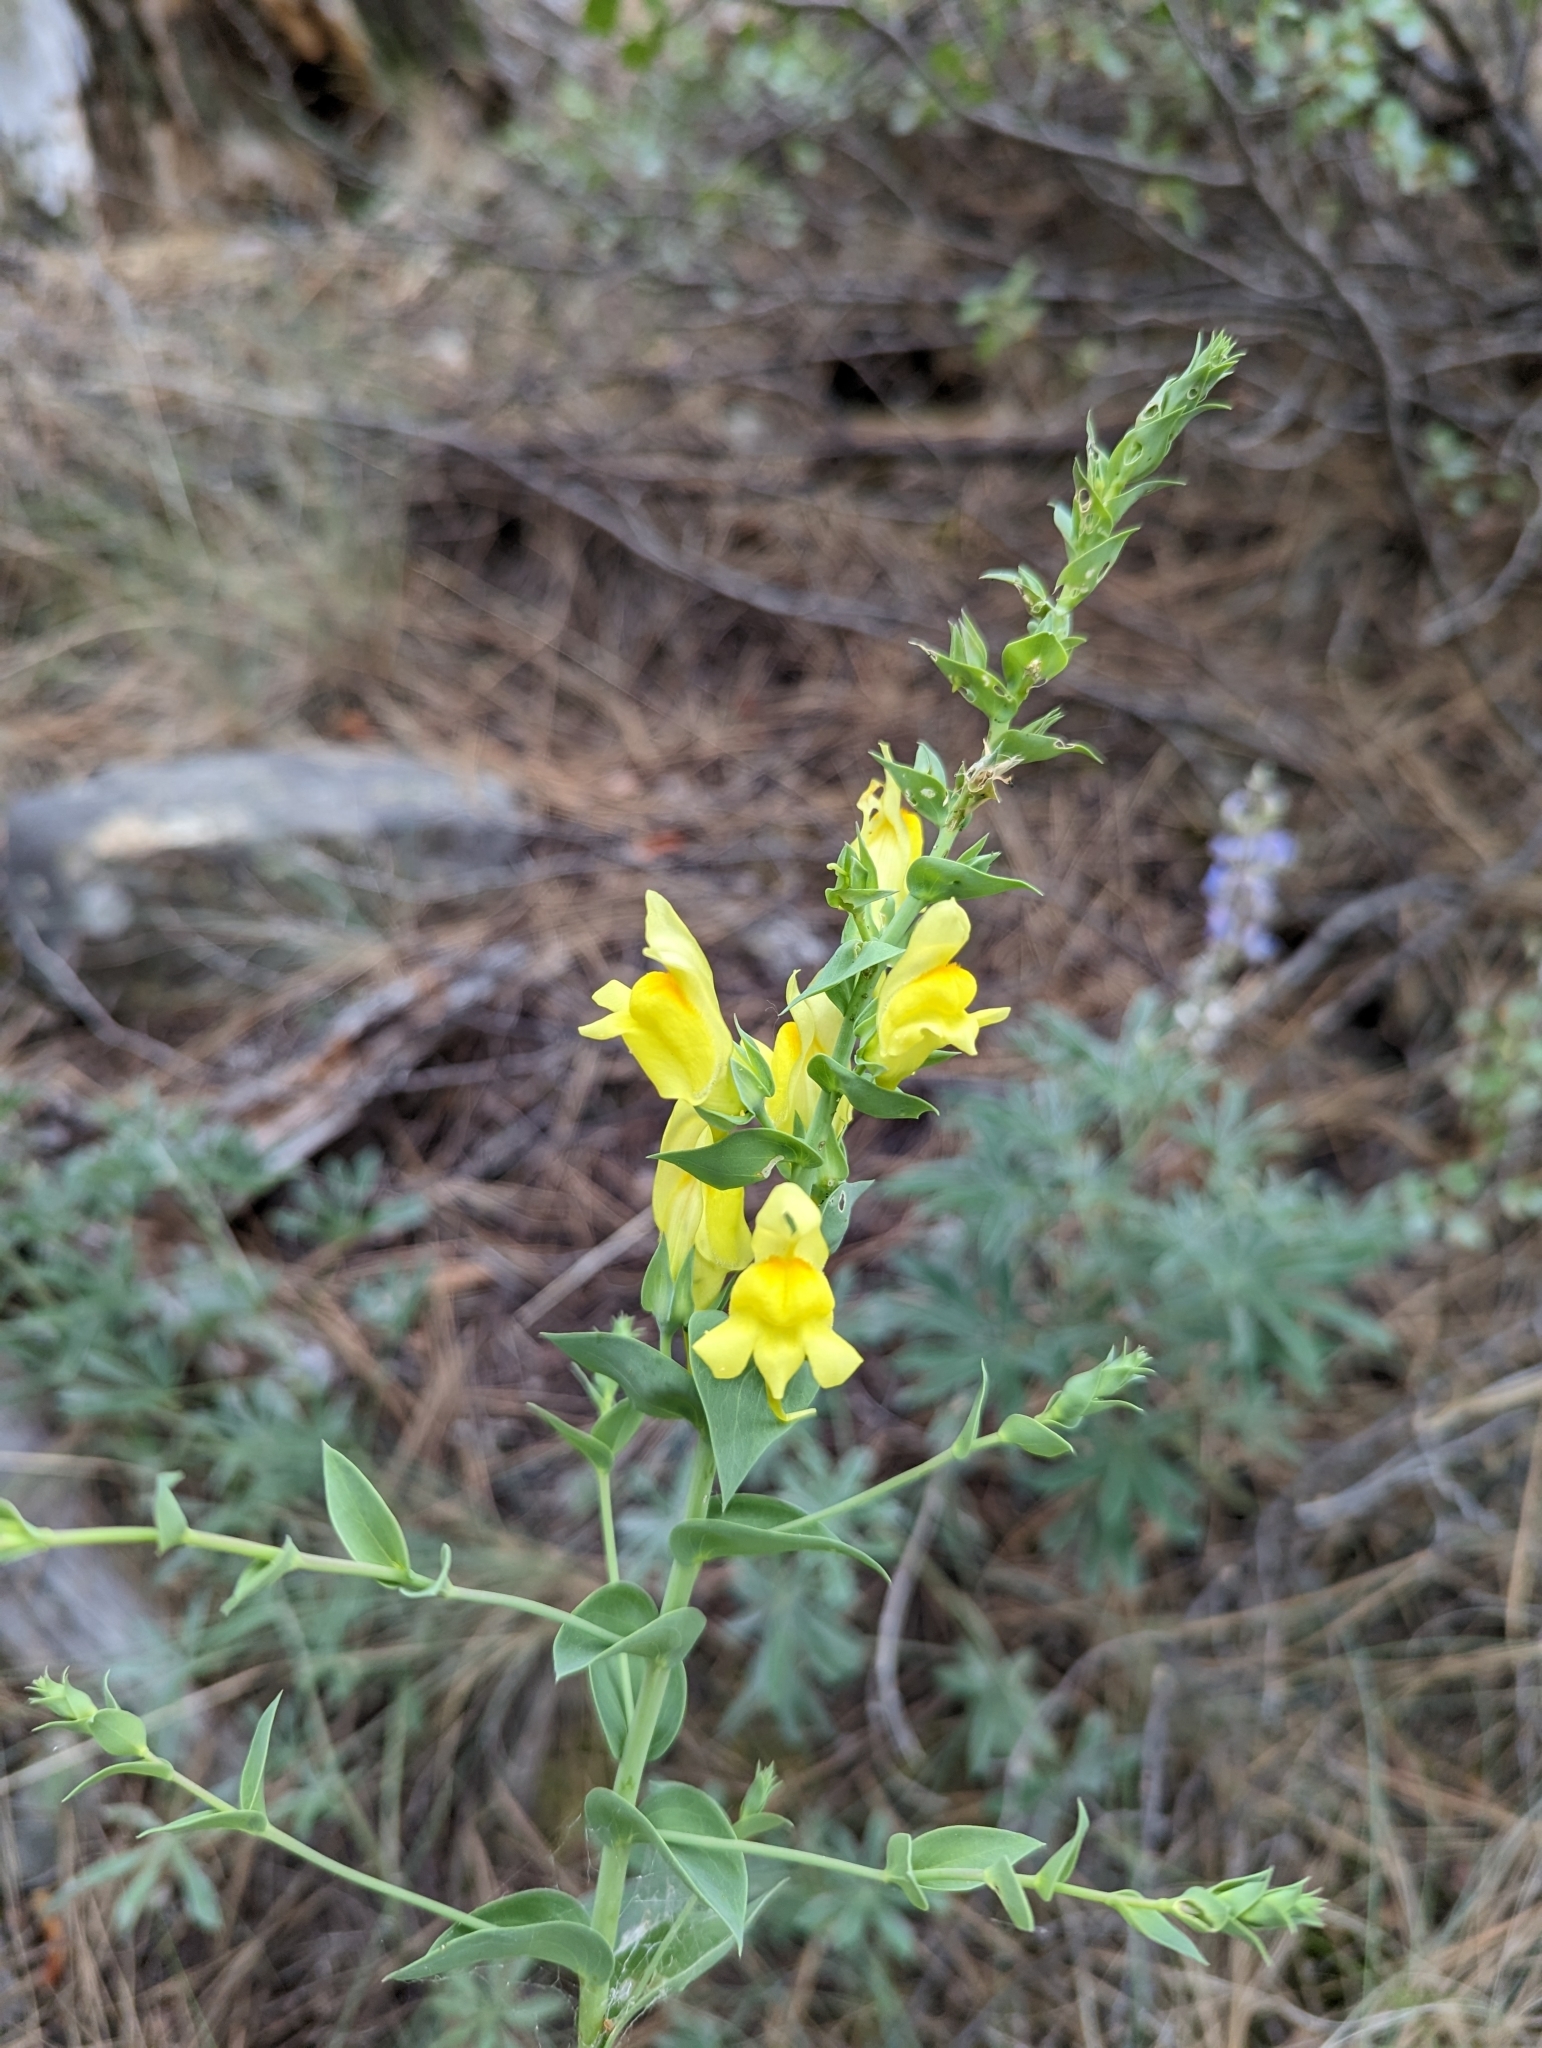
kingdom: Plantae
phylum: Tracheophyta
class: Magnoliopsida
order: Lamiales
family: Plantaginaceae
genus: Linaria
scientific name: Linaria dalmatica
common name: Dalmatian toadflax
